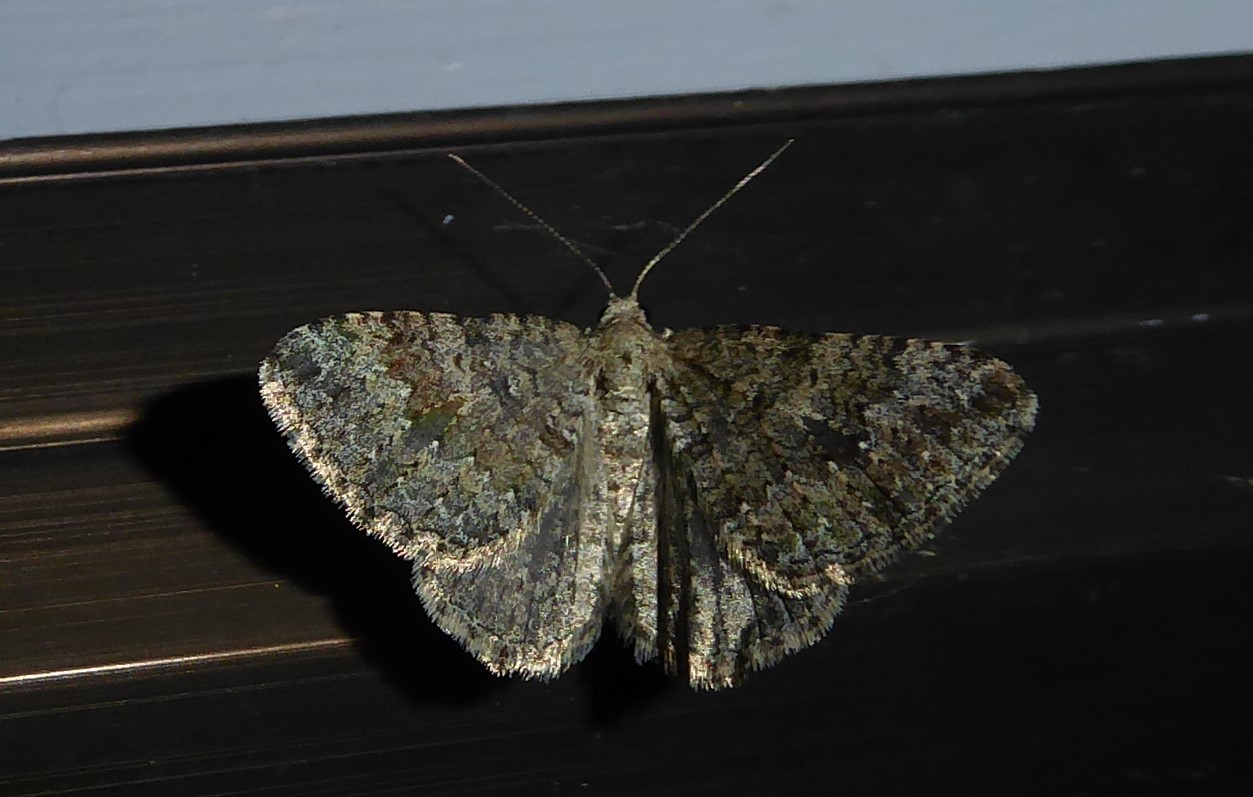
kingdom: Animalia
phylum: Arthropoda
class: Insecta
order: Lepidoptera
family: Geometridae
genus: Helastia
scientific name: Helastia corcularia
